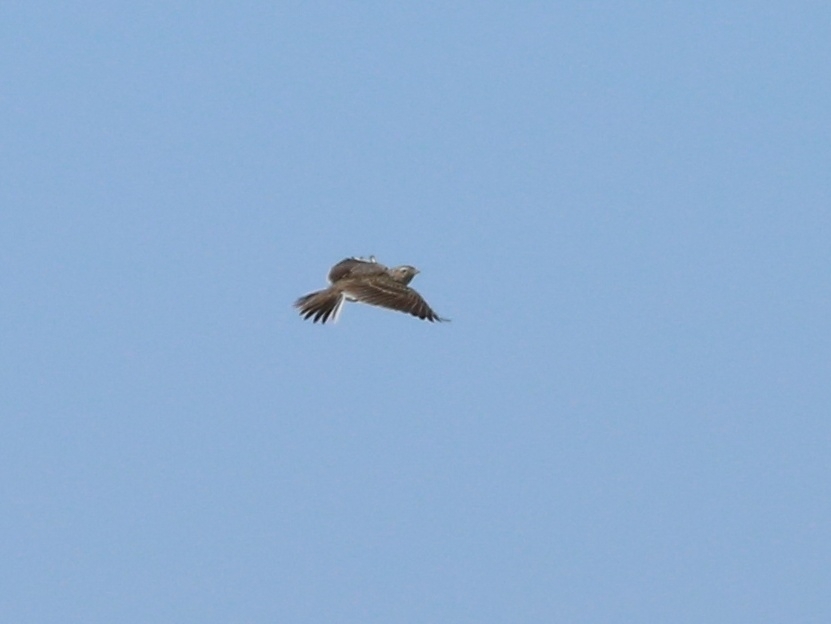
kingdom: Animalia
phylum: Chordata
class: Aves
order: Passeriformes
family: Alaudidae
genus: Alauda
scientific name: Alauda arvensis
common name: Eurasian skylark
